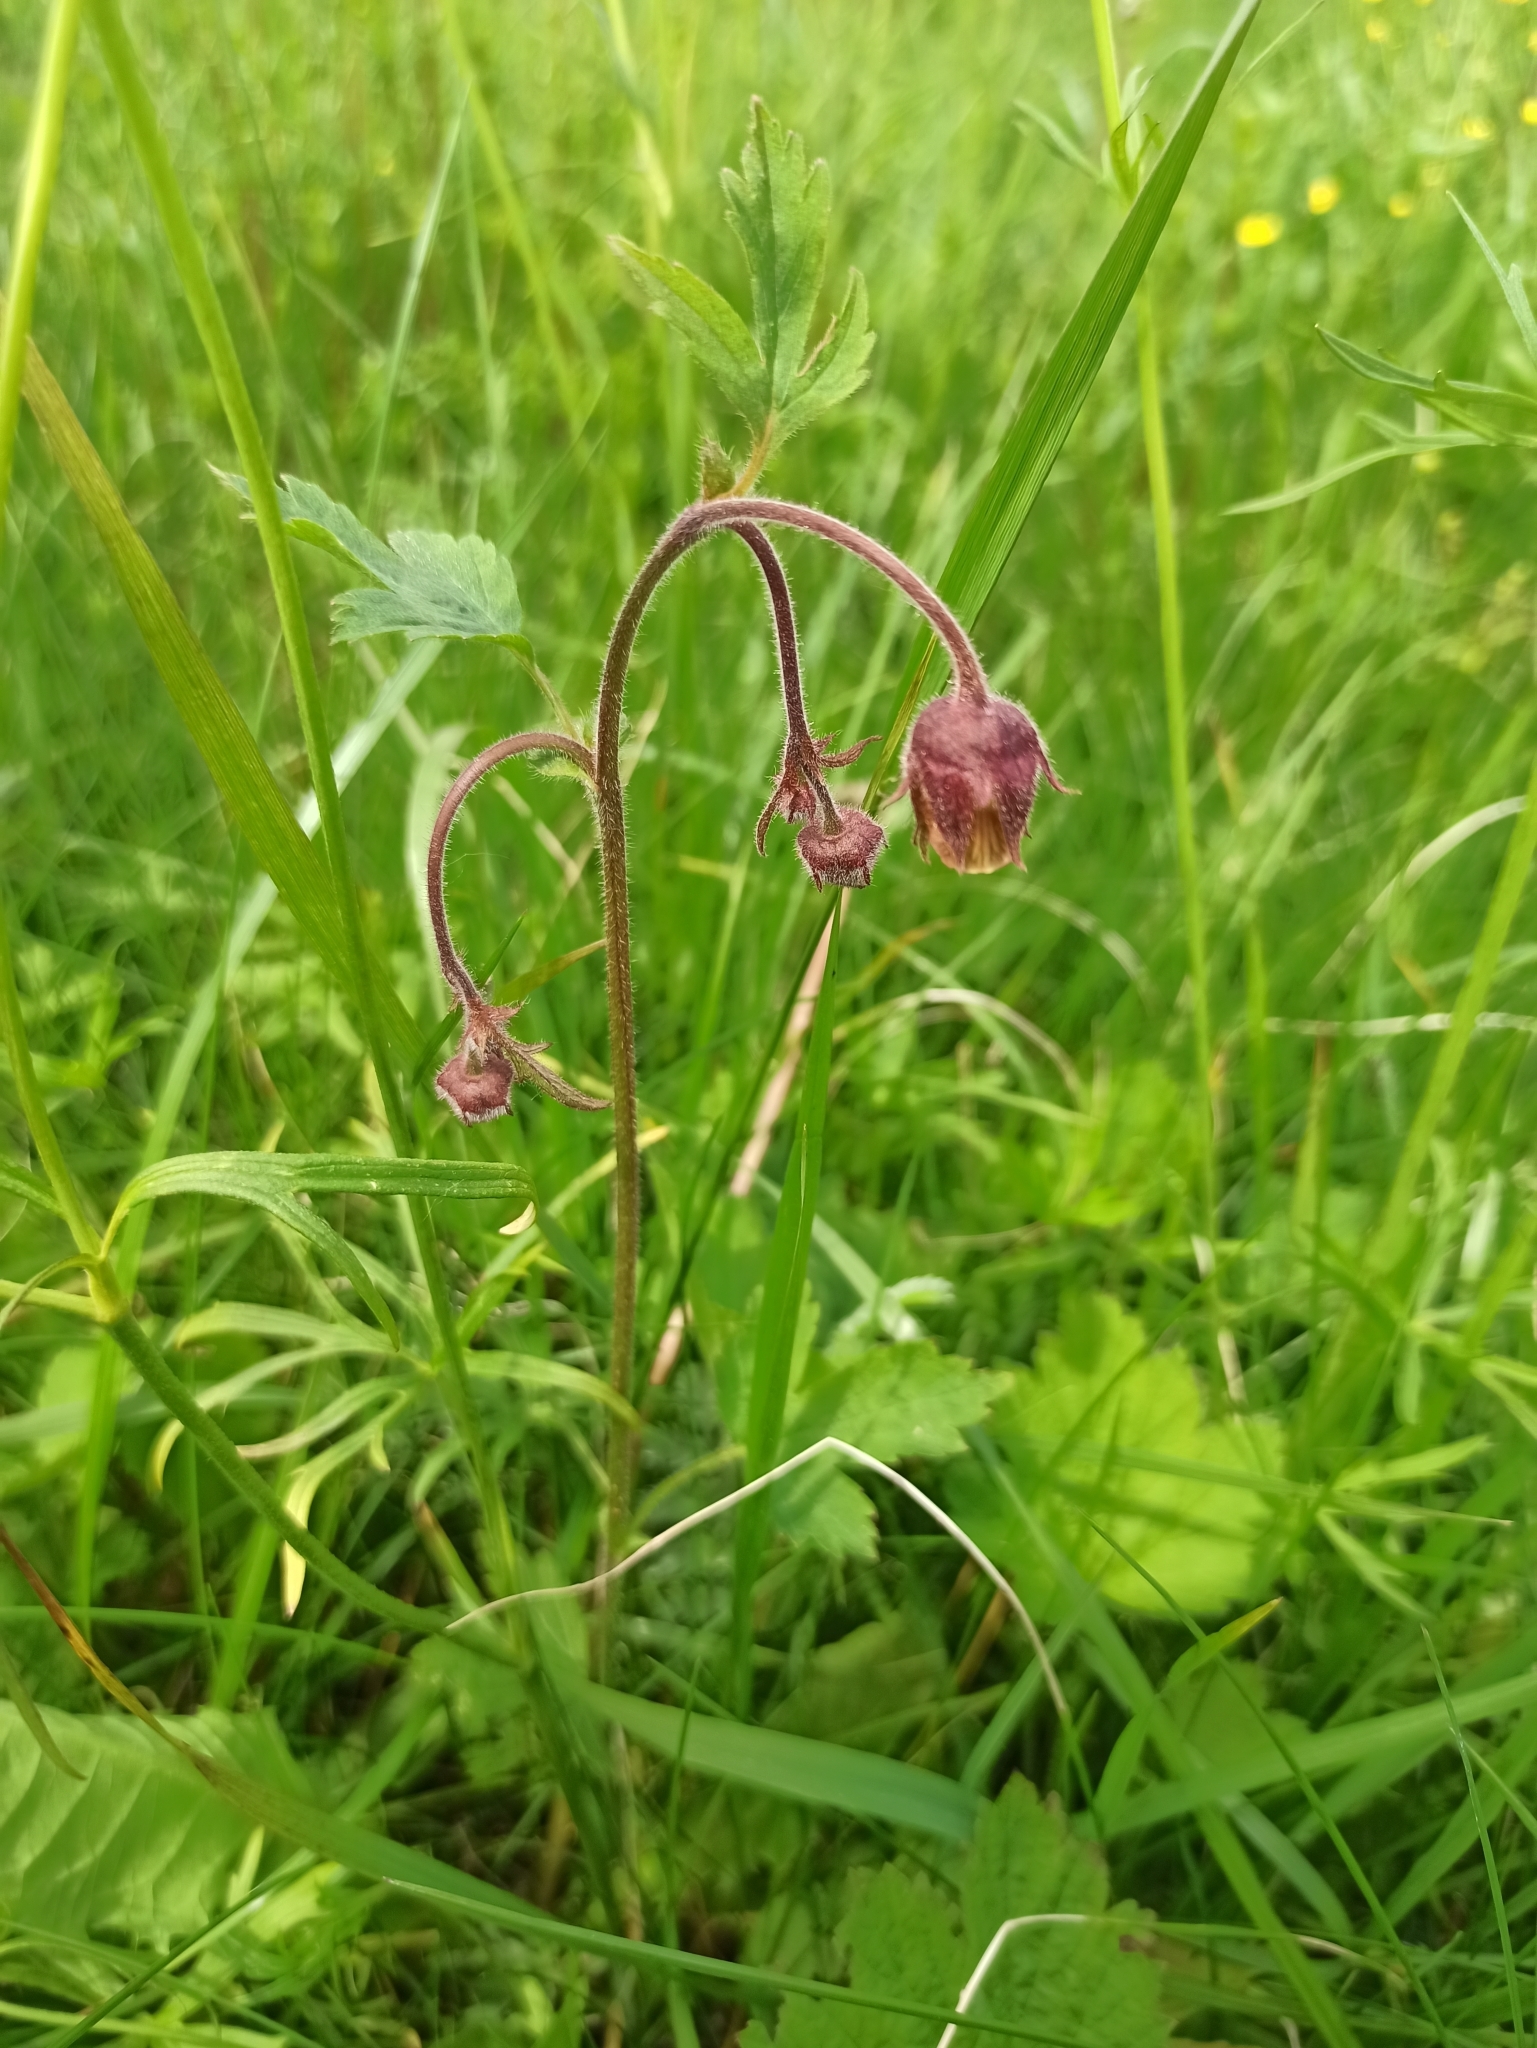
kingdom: Plantae
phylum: Tracheophyta
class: Magnoliopsida
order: Rosales
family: Rosaceae
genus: Geum
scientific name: Geum rivale
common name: Water avens
